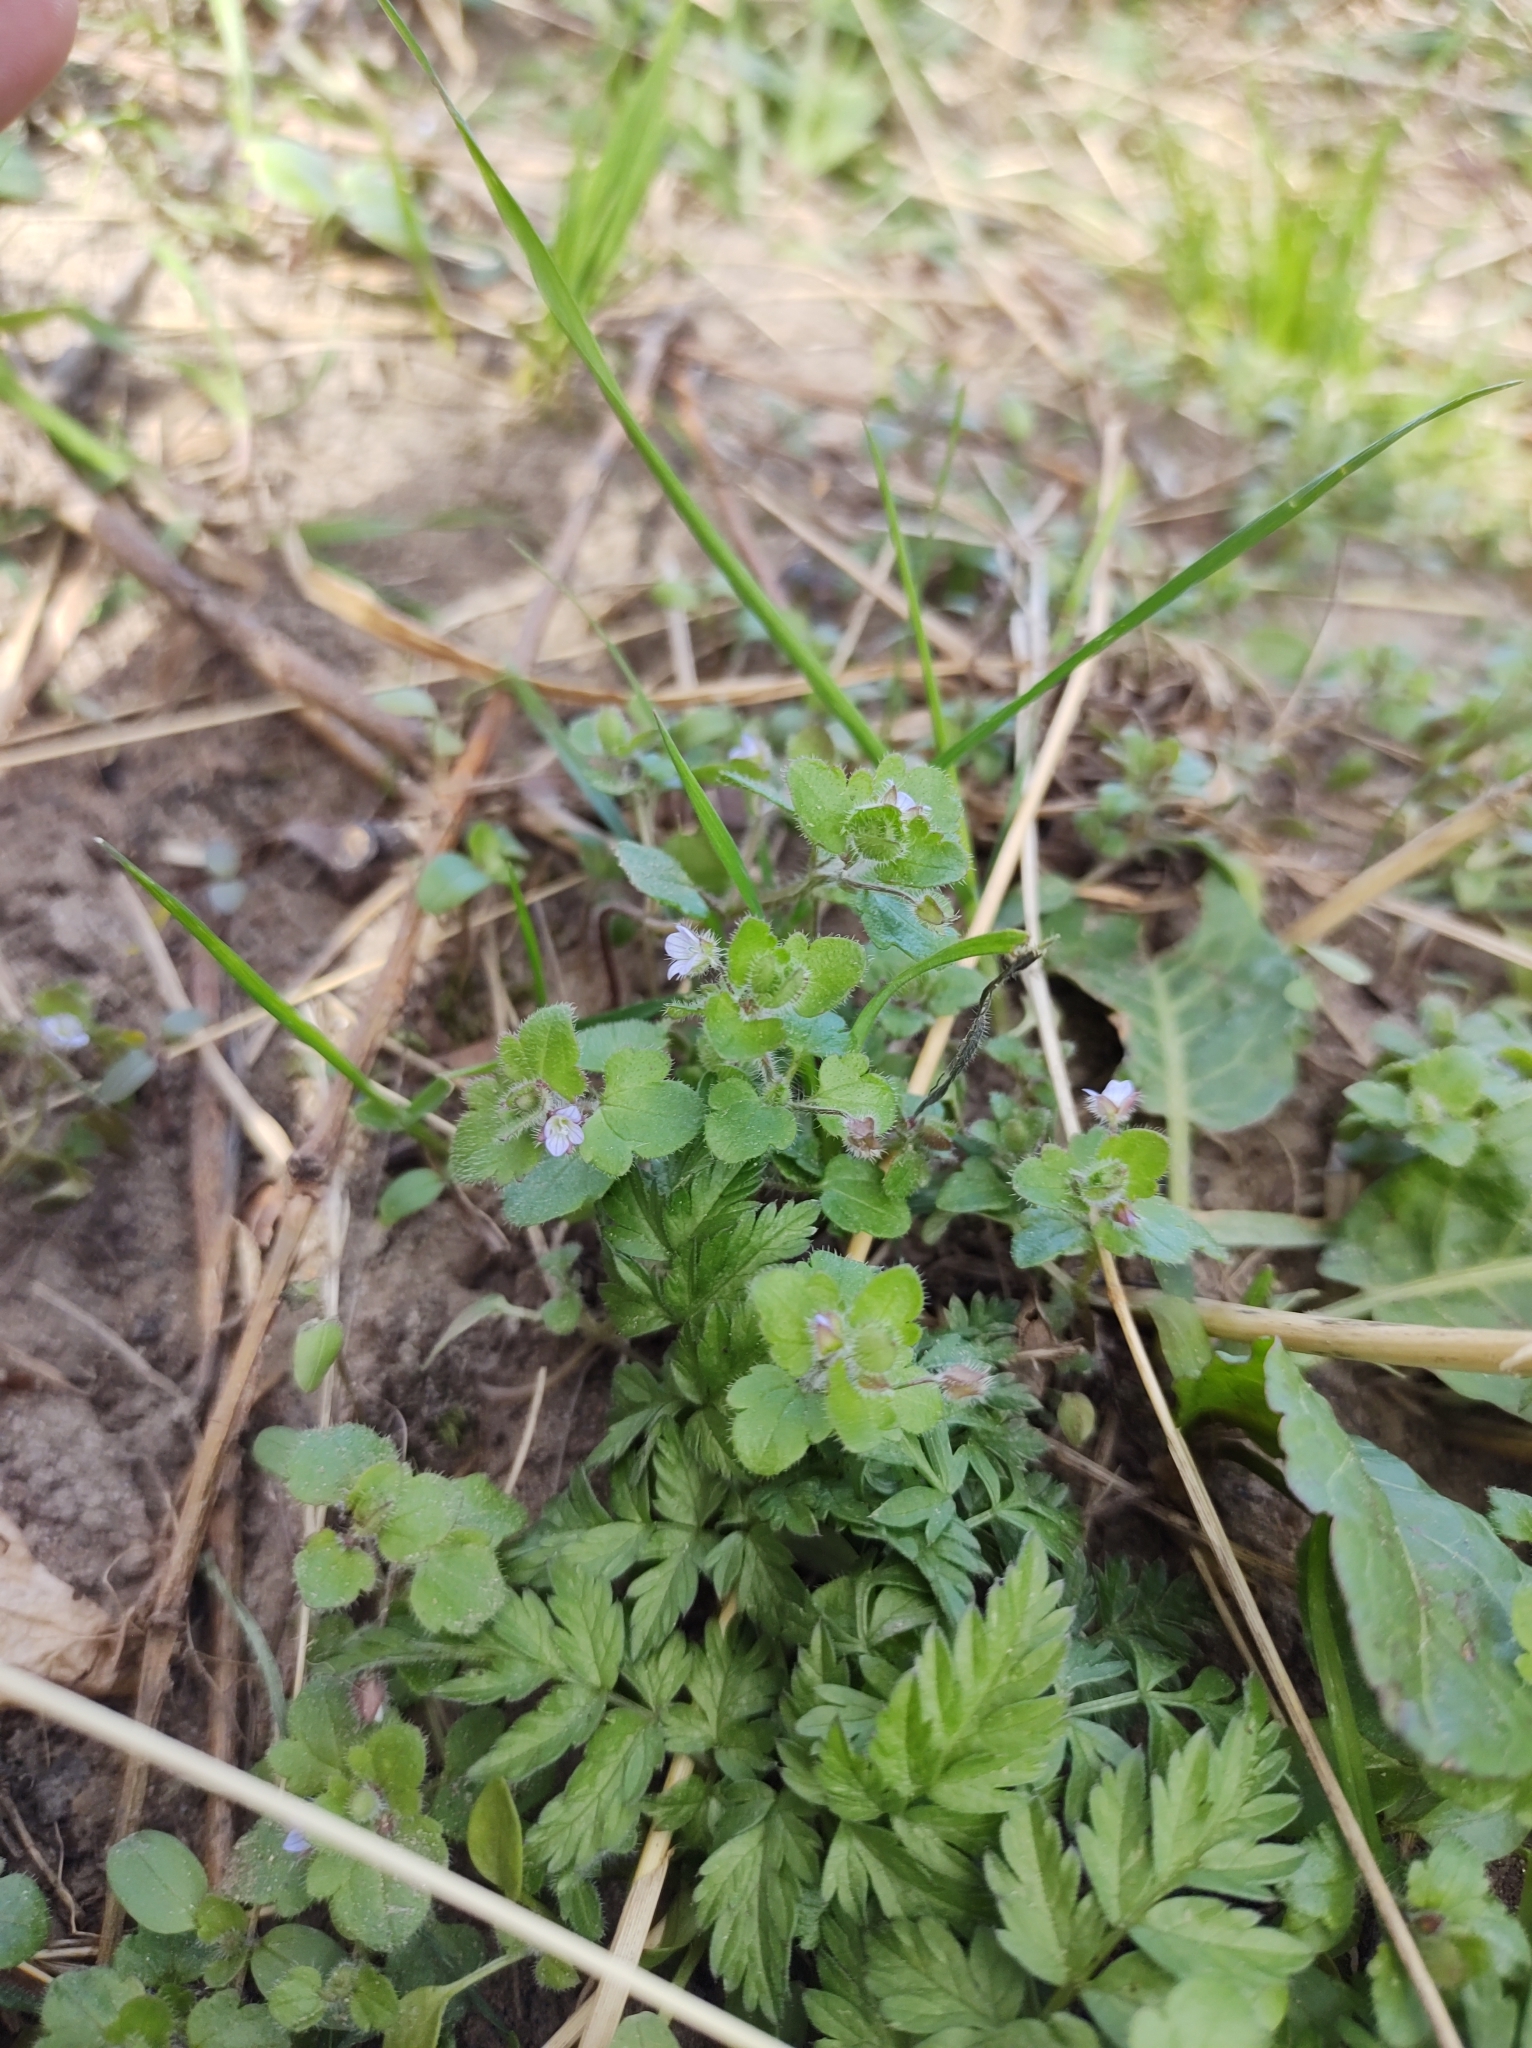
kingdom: Plantae
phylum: Tracheophyta
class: Magnoliopsida
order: Lamiales
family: Plantaginaceae
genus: Veronica
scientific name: Veronica hederifolia
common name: Ivy-leaved speedwell
